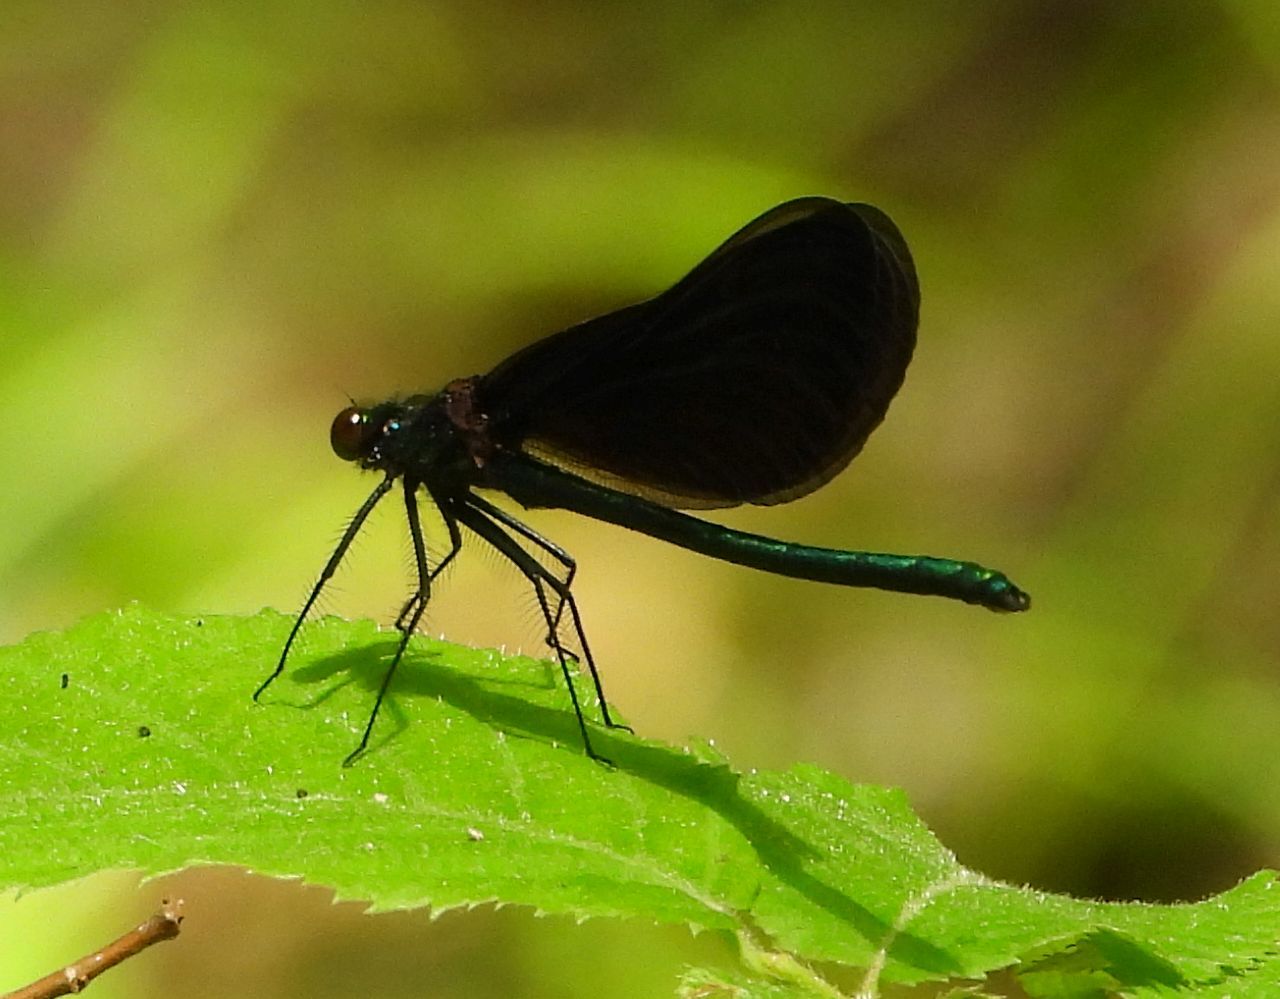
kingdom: Animalia
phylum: Arthropoda
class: Insecta
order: Odonata
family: Calopterygidae
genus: Calopteryx
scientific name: Calopteryx maculata
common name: Ebony jewelwing
